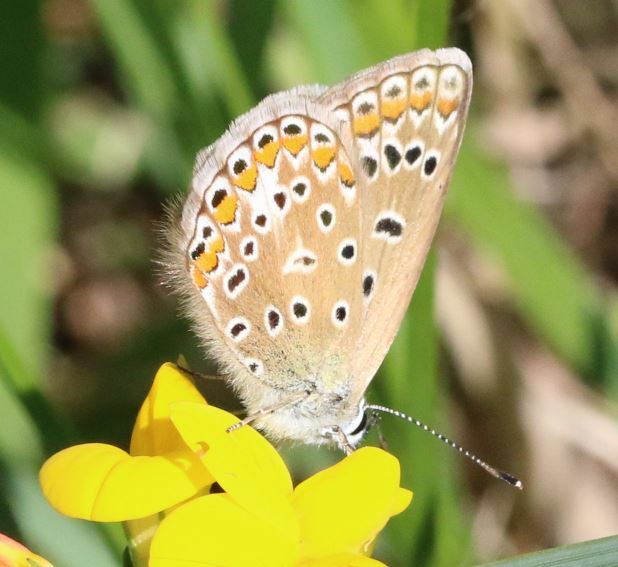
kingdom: Animalia
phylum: Arthropoda
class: Insecta
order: Lepidoptera
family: Lycaenidae
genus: Polyommatus
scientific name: Polyommatus icarus
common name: Common blue
